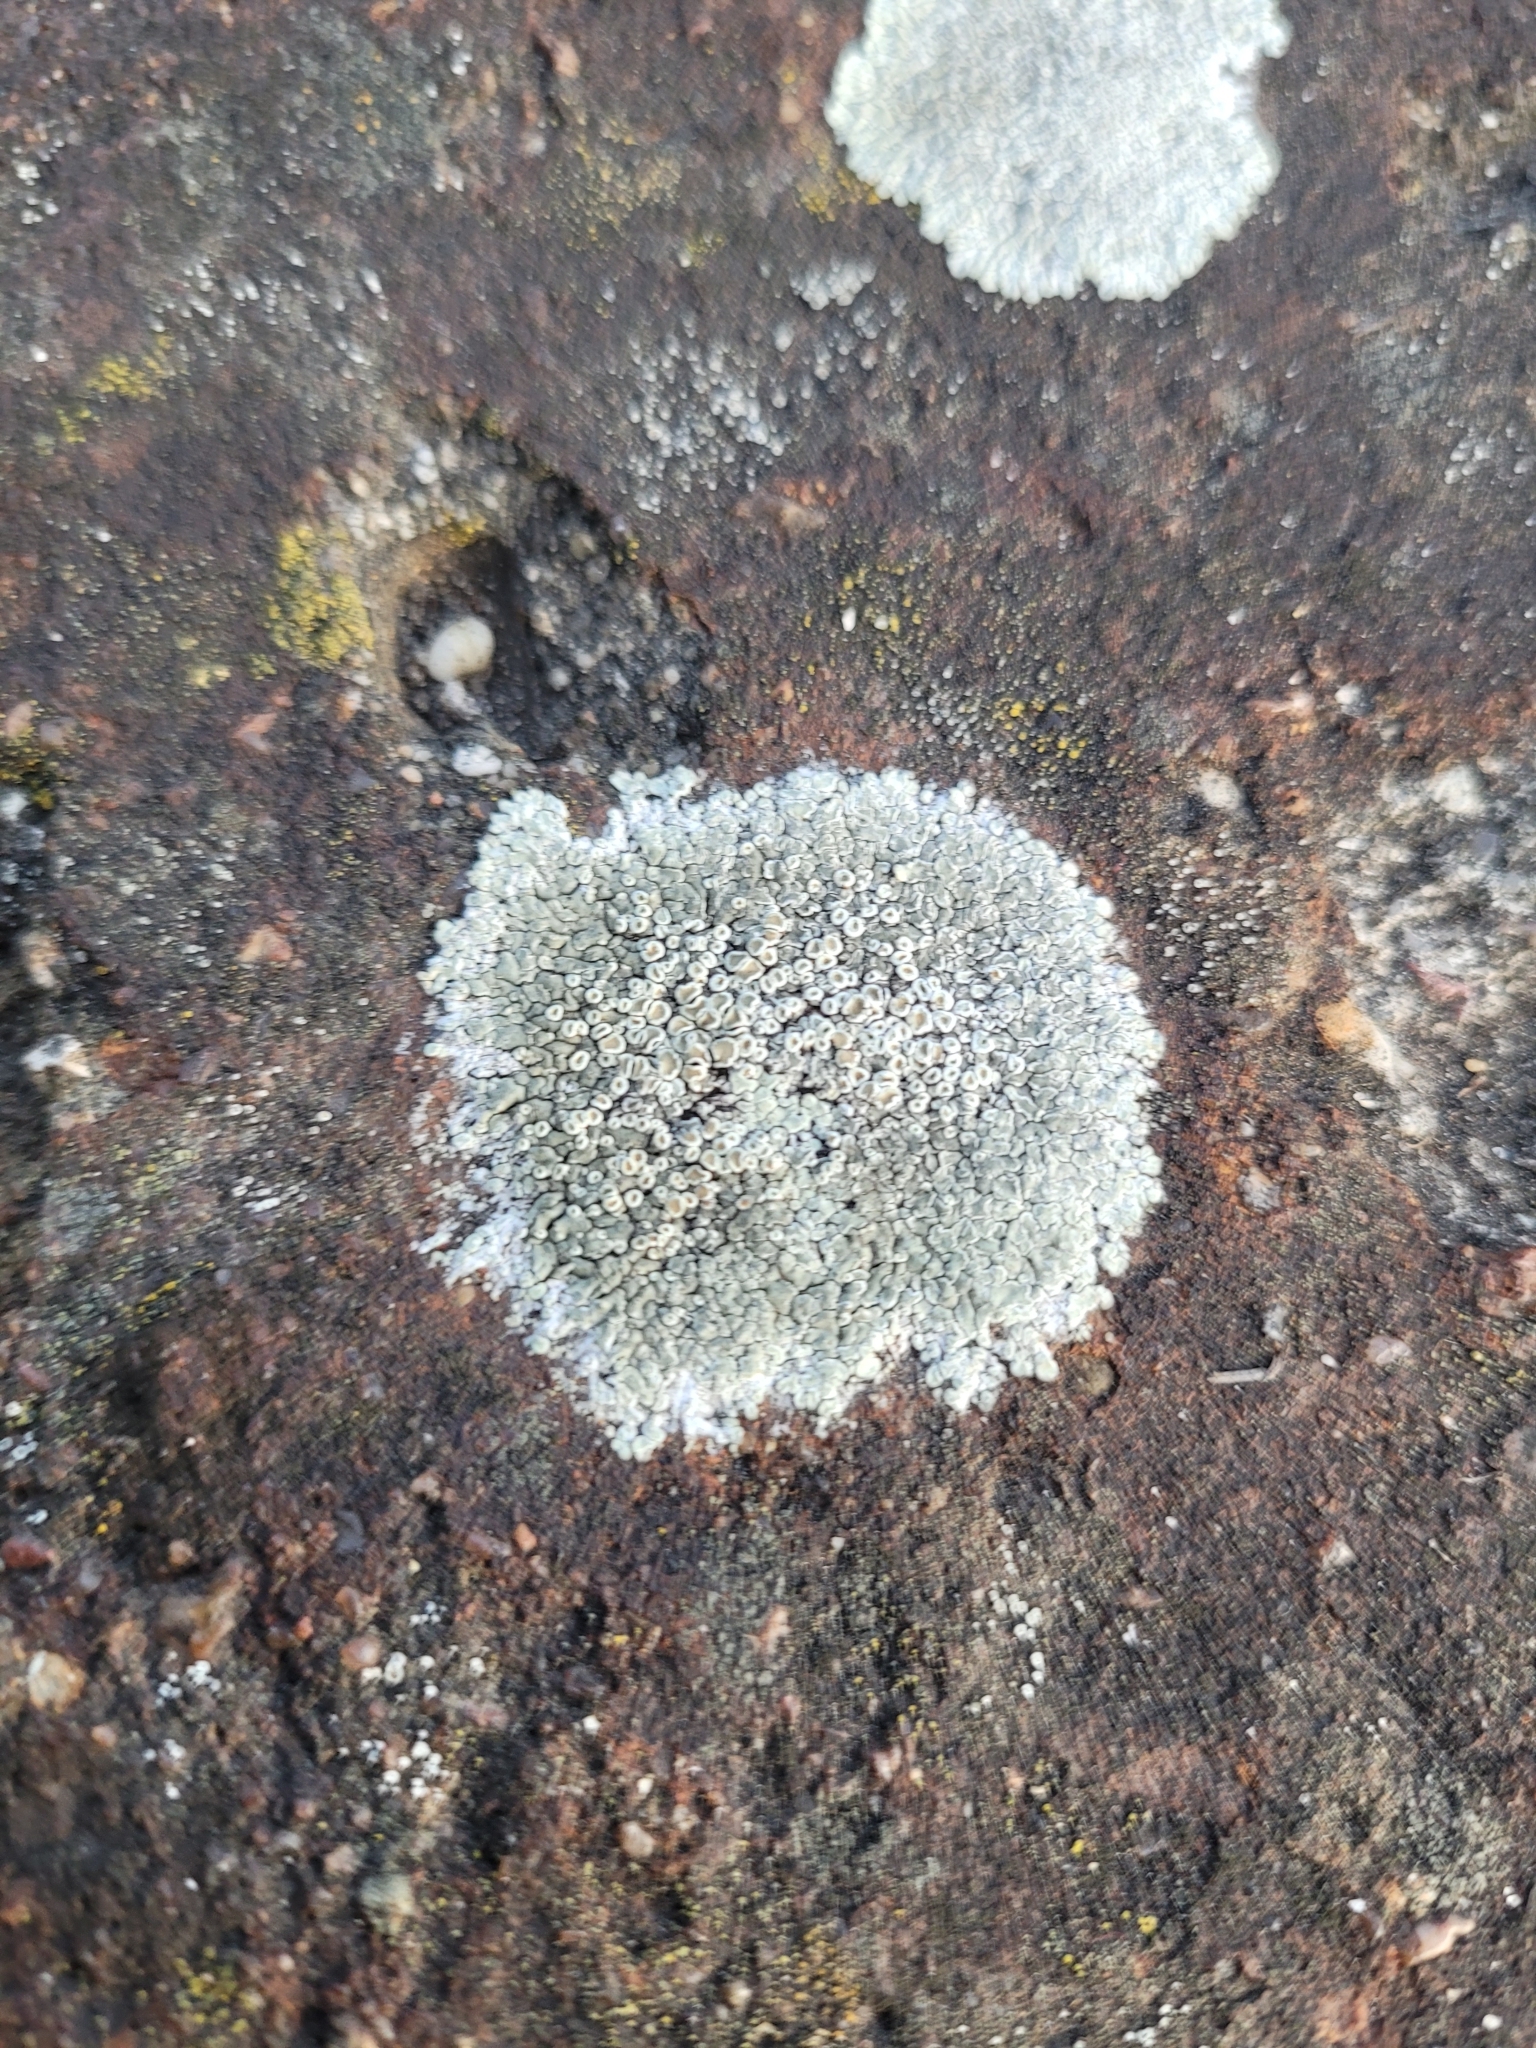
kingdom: Fungi
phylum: Ascomycota
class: Lecanoromycetes
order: Lecanorales
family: Lecanoraceae
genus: Protoparmeliopsis
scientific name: Protoparmeliopsis muralis
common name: Stonewall rim lichen
